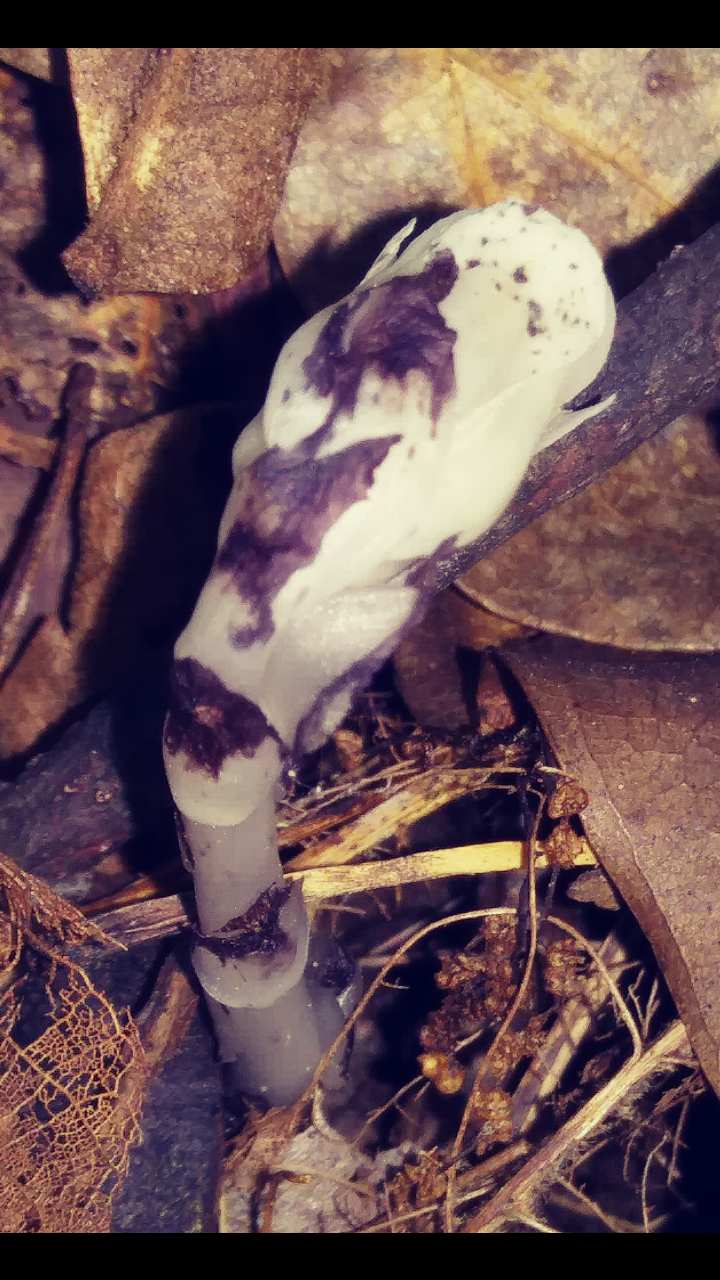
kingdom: Plantae
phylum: Tracheophyta
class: Magnoliopsida
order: Ericales
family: Ericaceae
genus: Monotropa
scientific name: Monotropa uniflora
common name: Convulsion root
